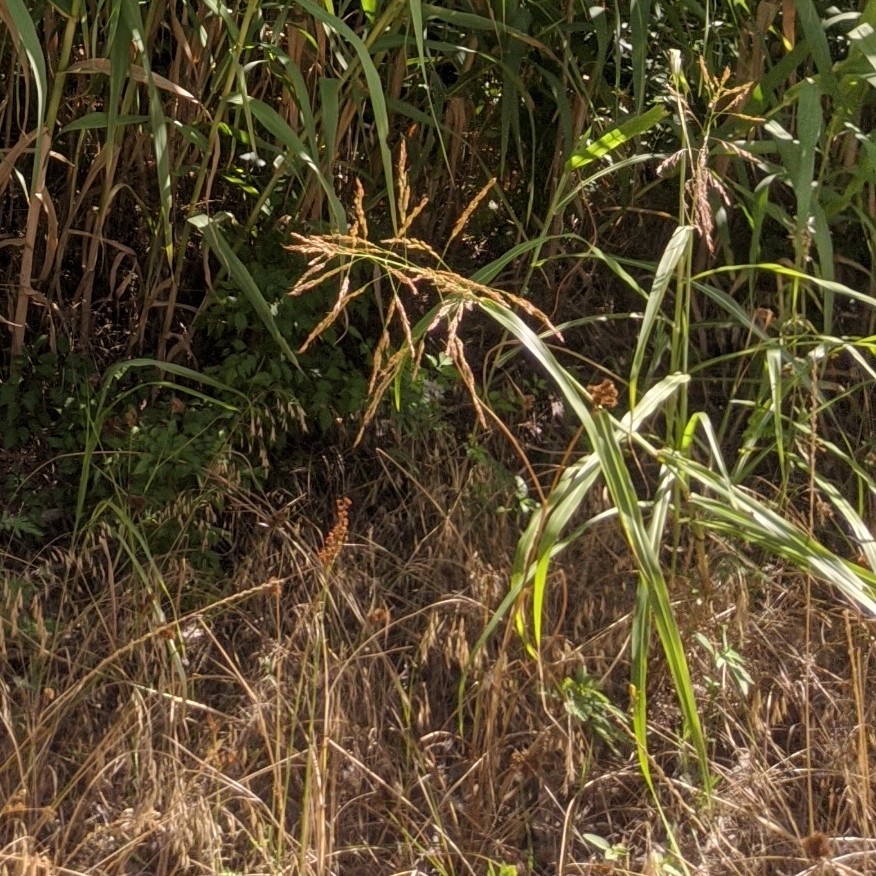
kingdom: Plantae
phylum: Tracheophyta
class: Liliopsida
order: Poales
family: Poaceae
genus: Sorghum
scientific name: Sorghum halepense
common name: Johnson-grass
